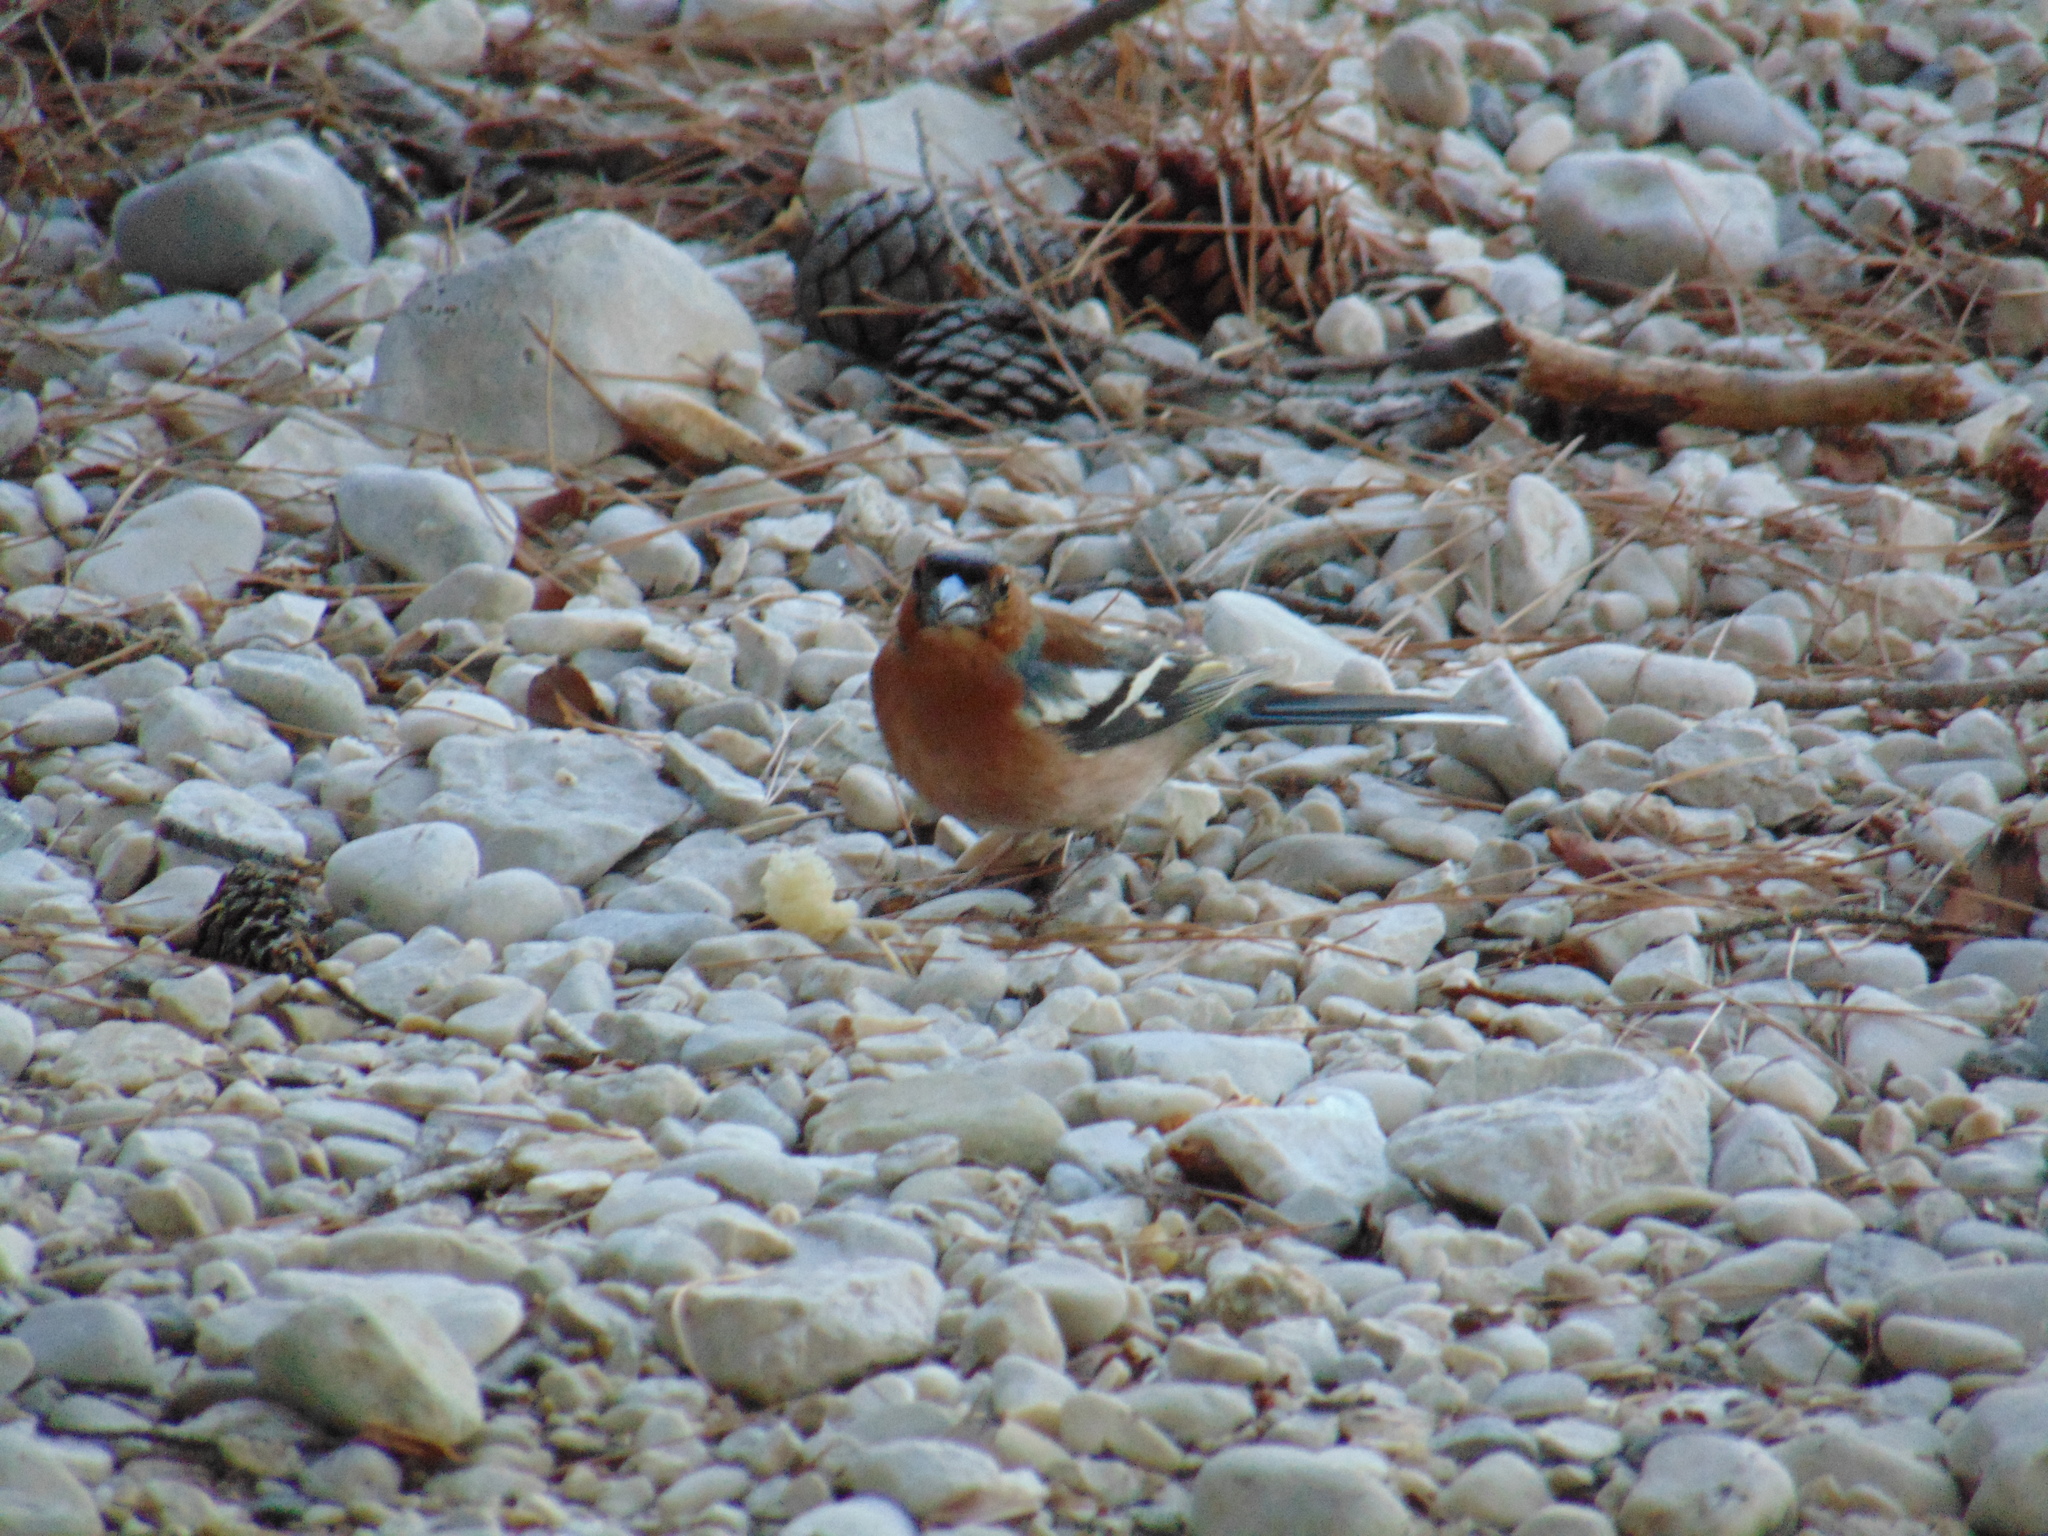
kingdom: Animalia
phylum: Chordata
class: Aves
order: Passeriformes
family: Fringillidae
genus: Fringilla
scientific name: Fringilla coelebs
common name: Common chaffinch
